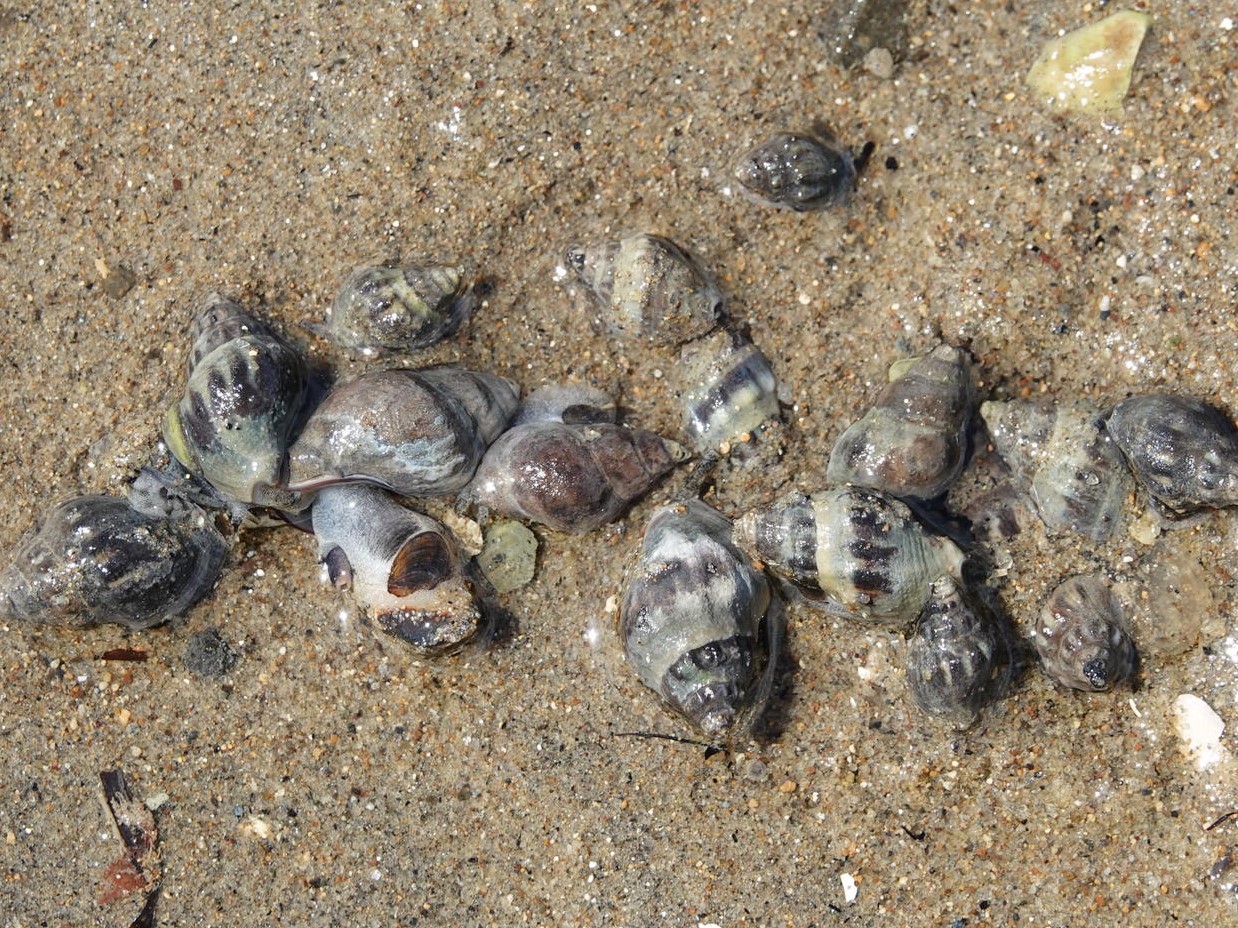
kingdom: Animalia
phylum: Mollusca
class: Gastropoda
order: Neogastropoda
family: Cominellidae
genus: Cominella
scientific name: Cominella glandiformis
